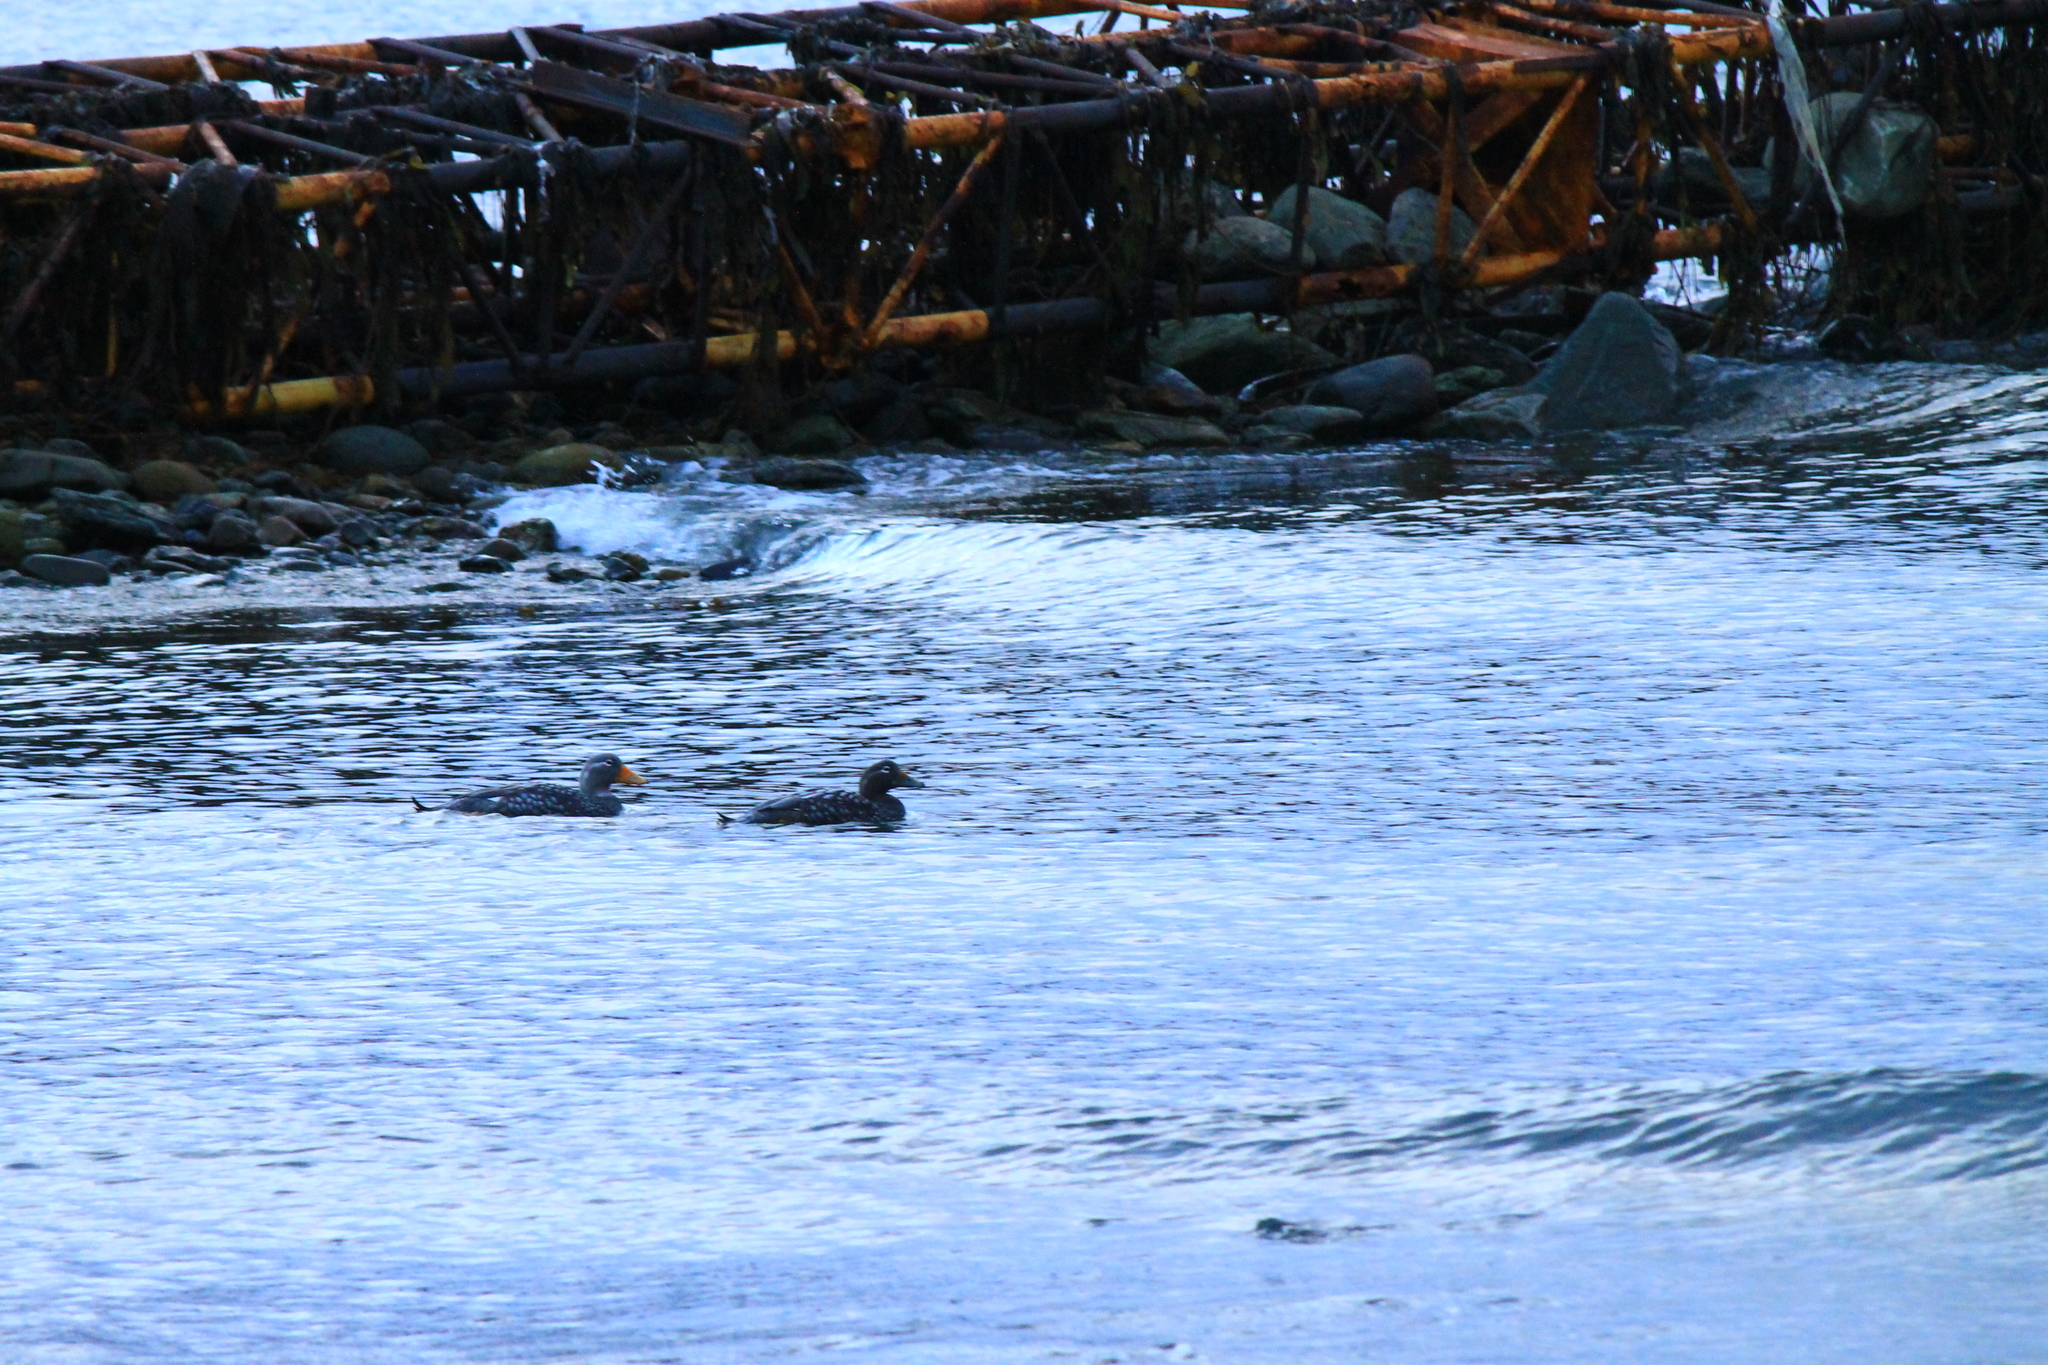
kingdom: Animalia
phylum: Chordata
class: Aves
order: Anseriformes
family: Anatidae
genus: Tachyeres
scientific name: Tachyeres patachonicus
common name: Flying steamer duck
